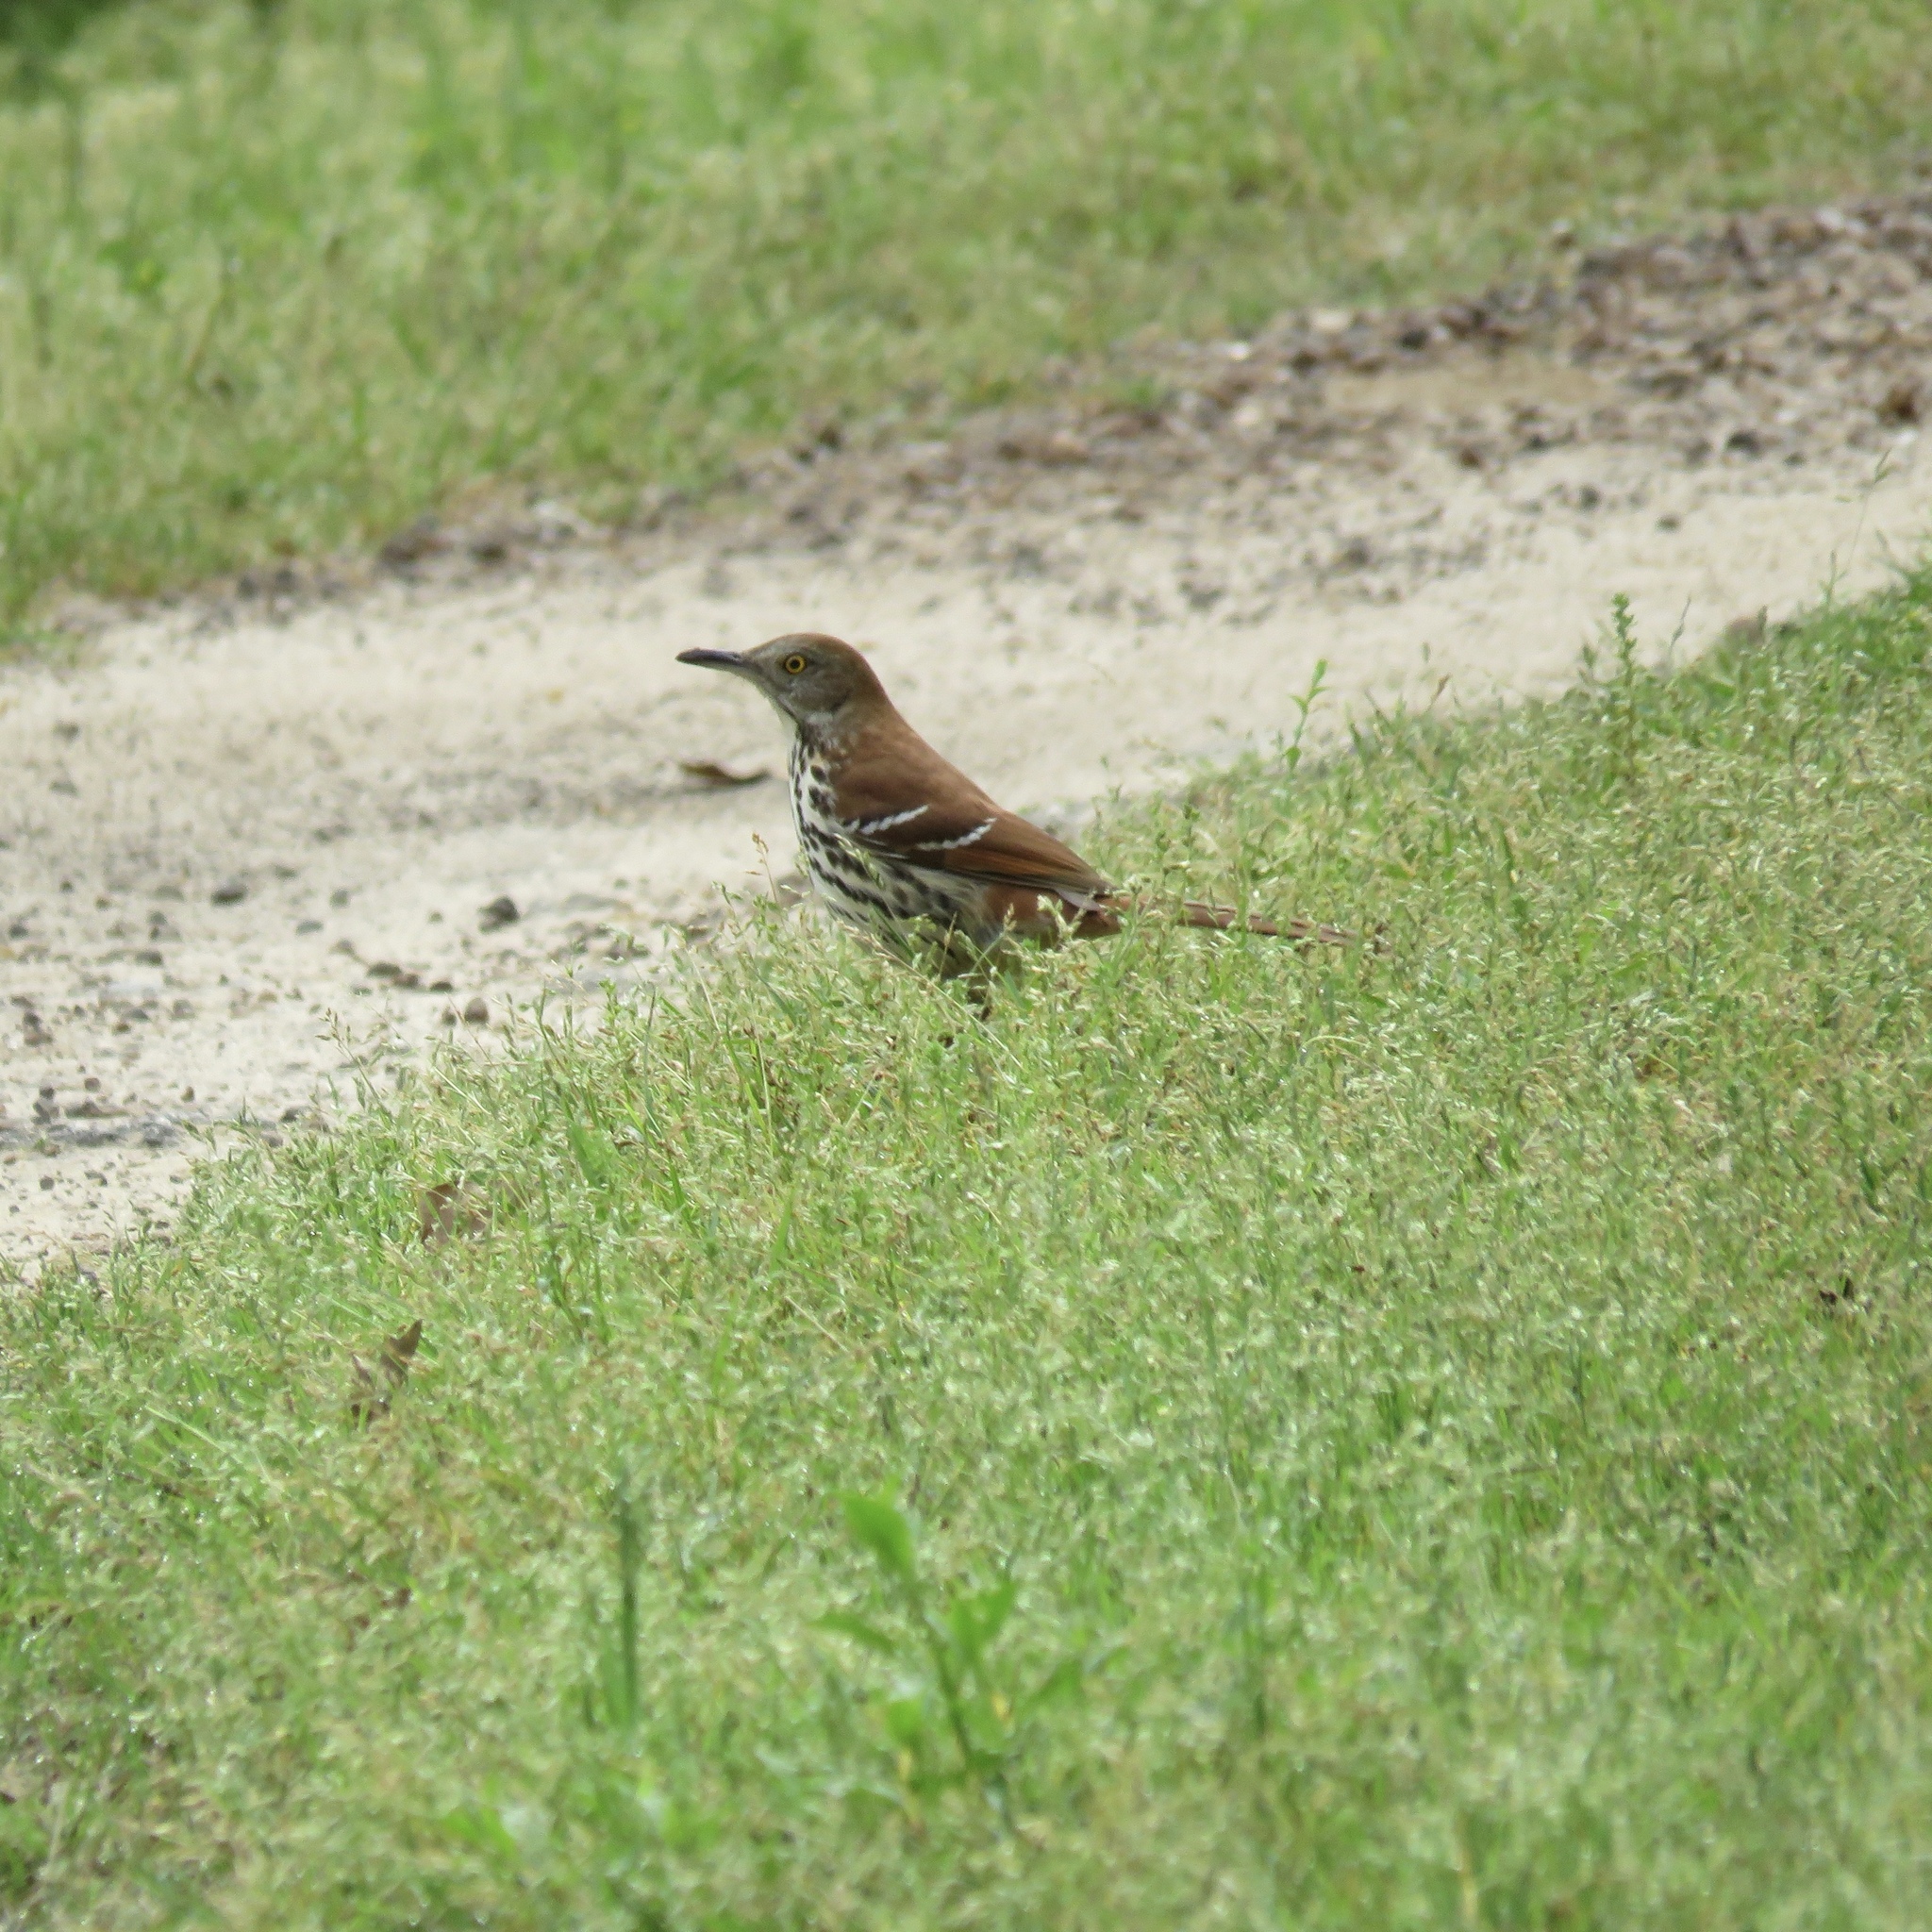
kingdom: Animalia
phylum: Chordata
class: Aves
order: Passeriformes
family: Mimidae
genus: Toxostoma
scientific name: Toxostoma rufum
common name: Brown thrasher
